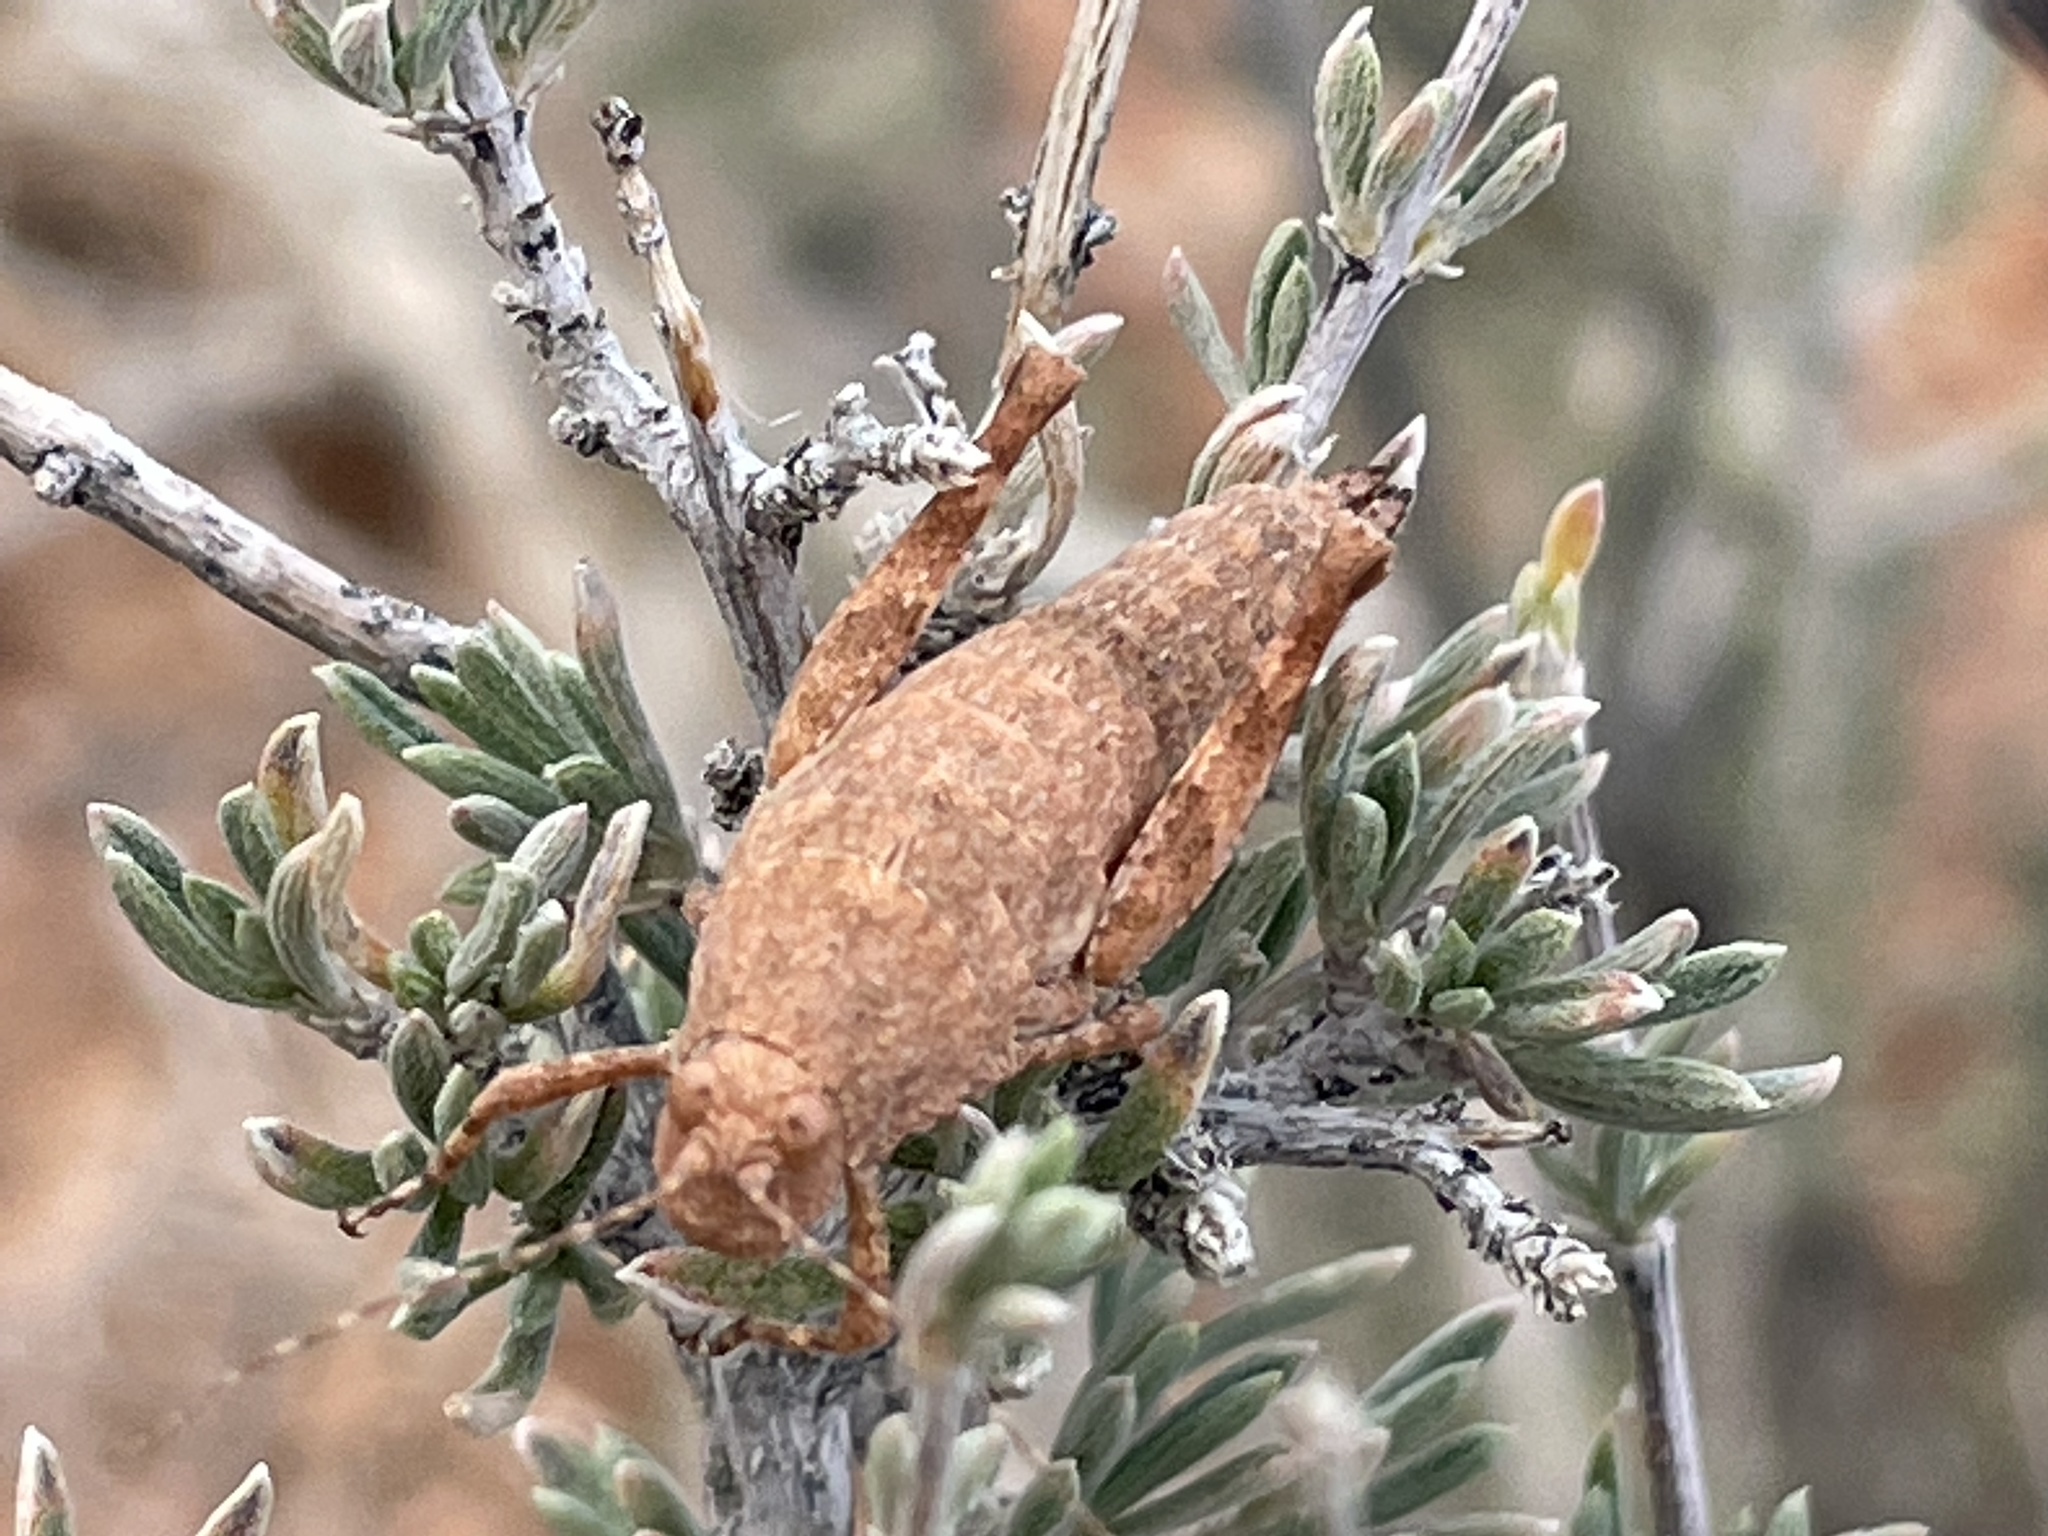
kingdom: Animalia
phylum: Arthropoda
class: Insecta
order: Orthoptera
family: Tanaoceridae
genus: Tanaocerus
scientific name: Tanaocerus koebelei
